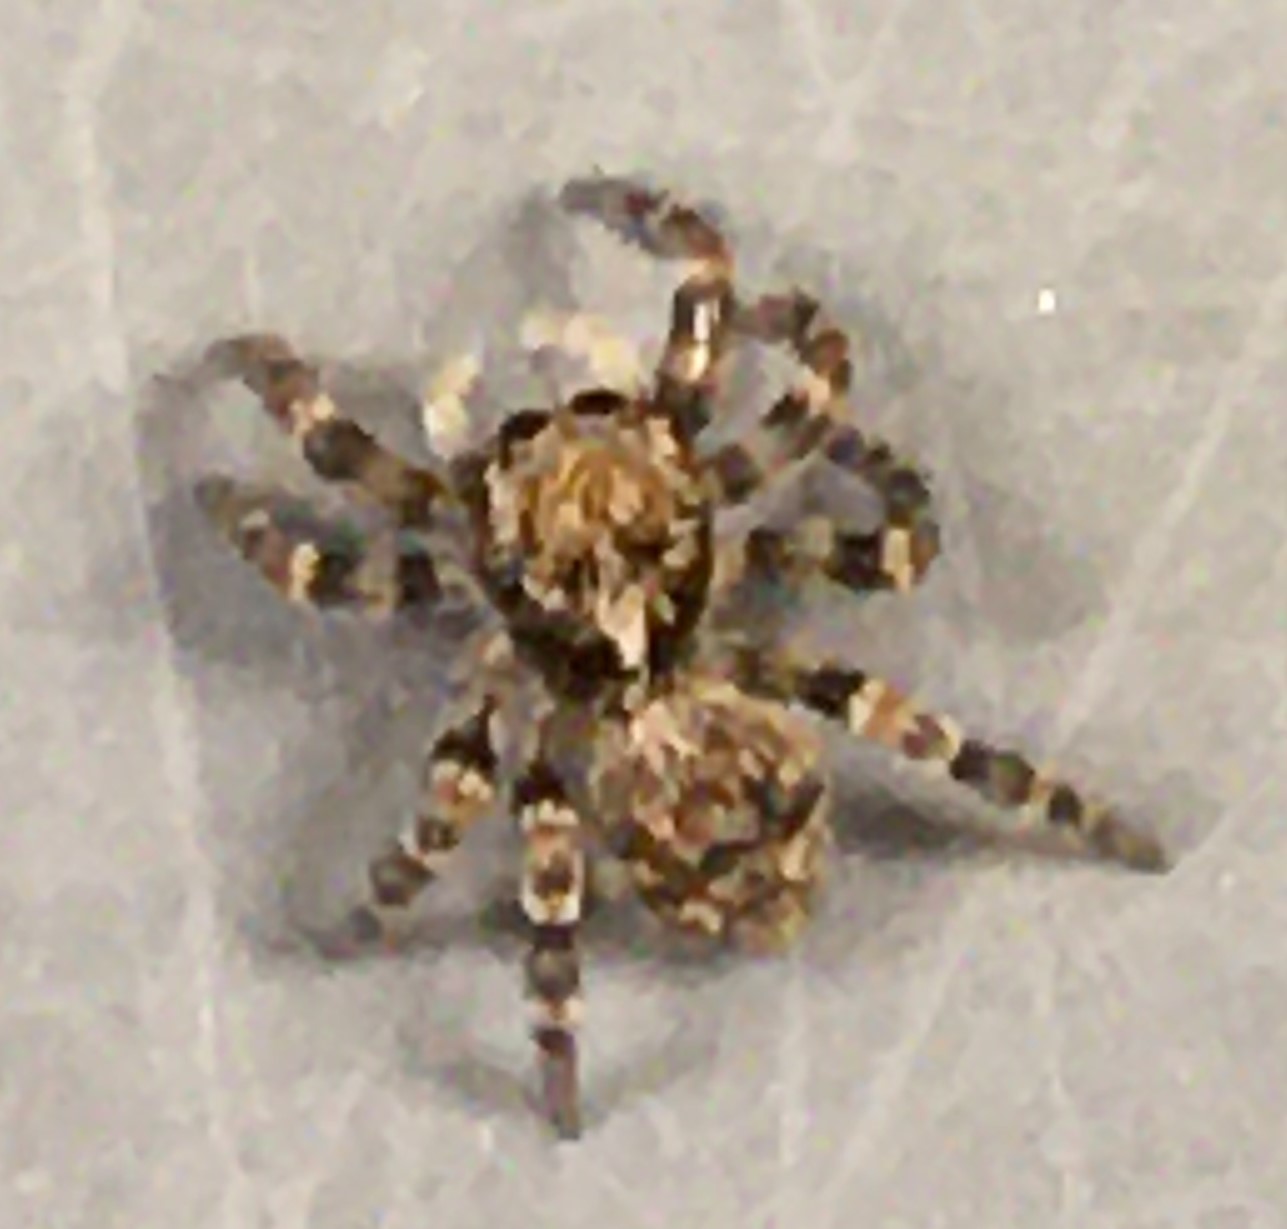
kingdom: Animalia
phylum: Arthropoda
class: Arachnida
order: Araneae
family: Salticidae
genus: Naphrys
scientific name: Naphrys pulex
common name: Flea jumping spider
